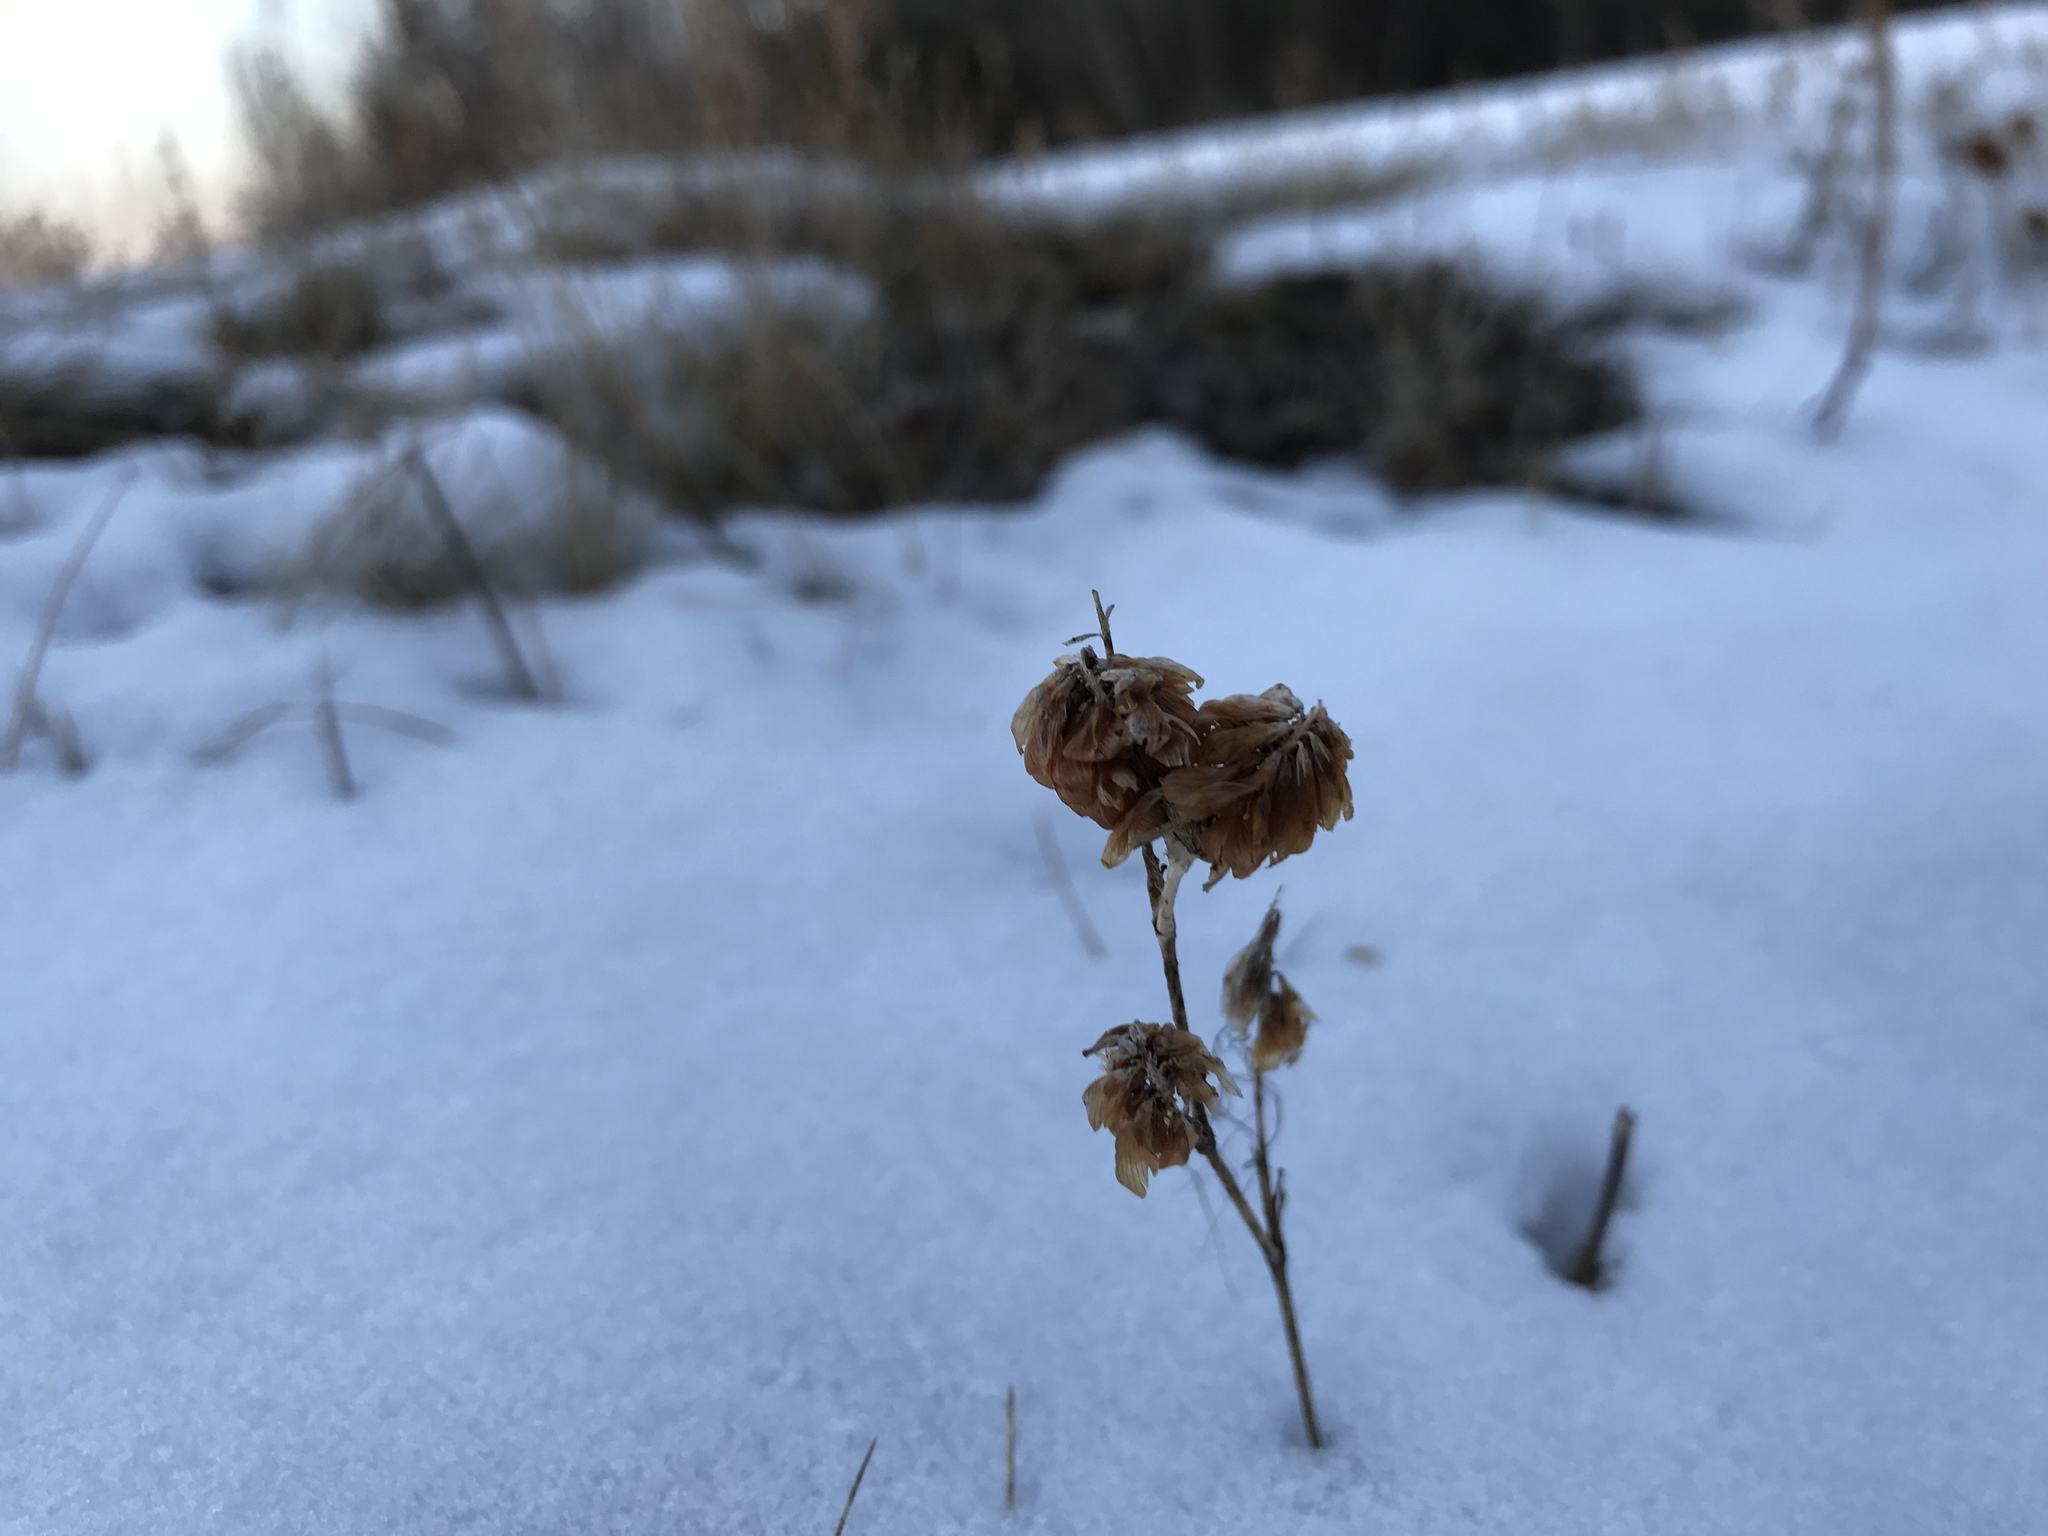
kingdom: Plantae
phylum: Tracheophyta
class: Magnoliopsida
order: Asterales
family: Asteraceae
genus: Pilosella
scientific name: Pilosella aurantiaca
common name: Fox-and-cubs
